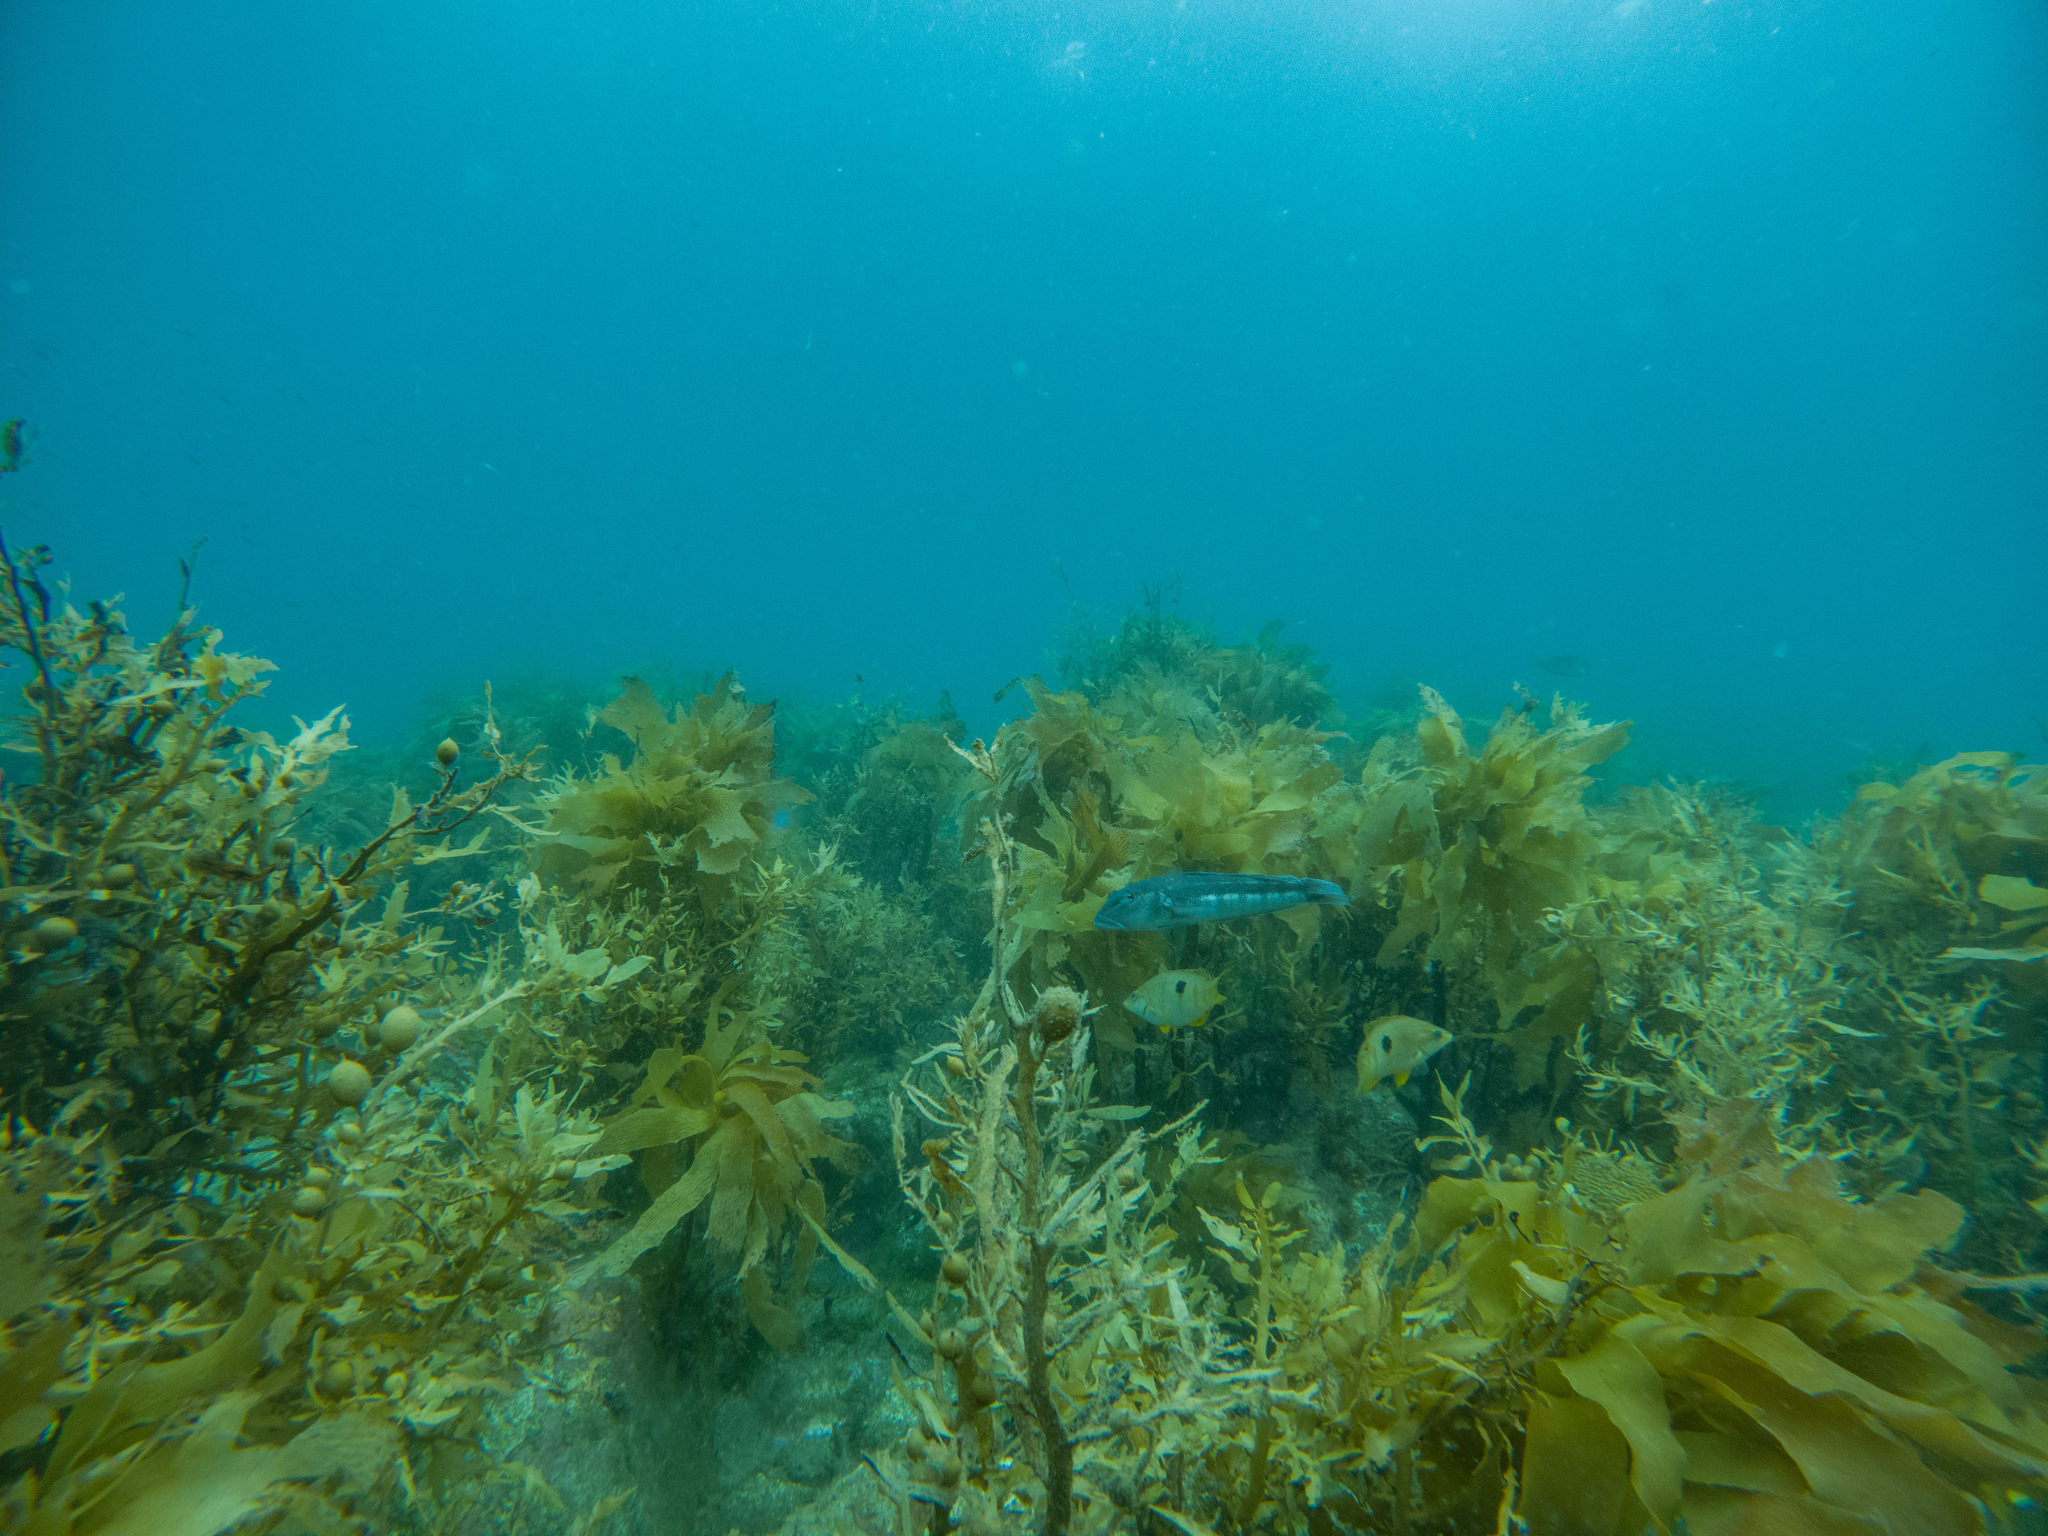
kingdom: Animalia
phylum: Chordata
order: Perciformes
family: Pinguipedidae
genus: Parapercis
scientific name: Parapercis colias
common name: Blue cod
